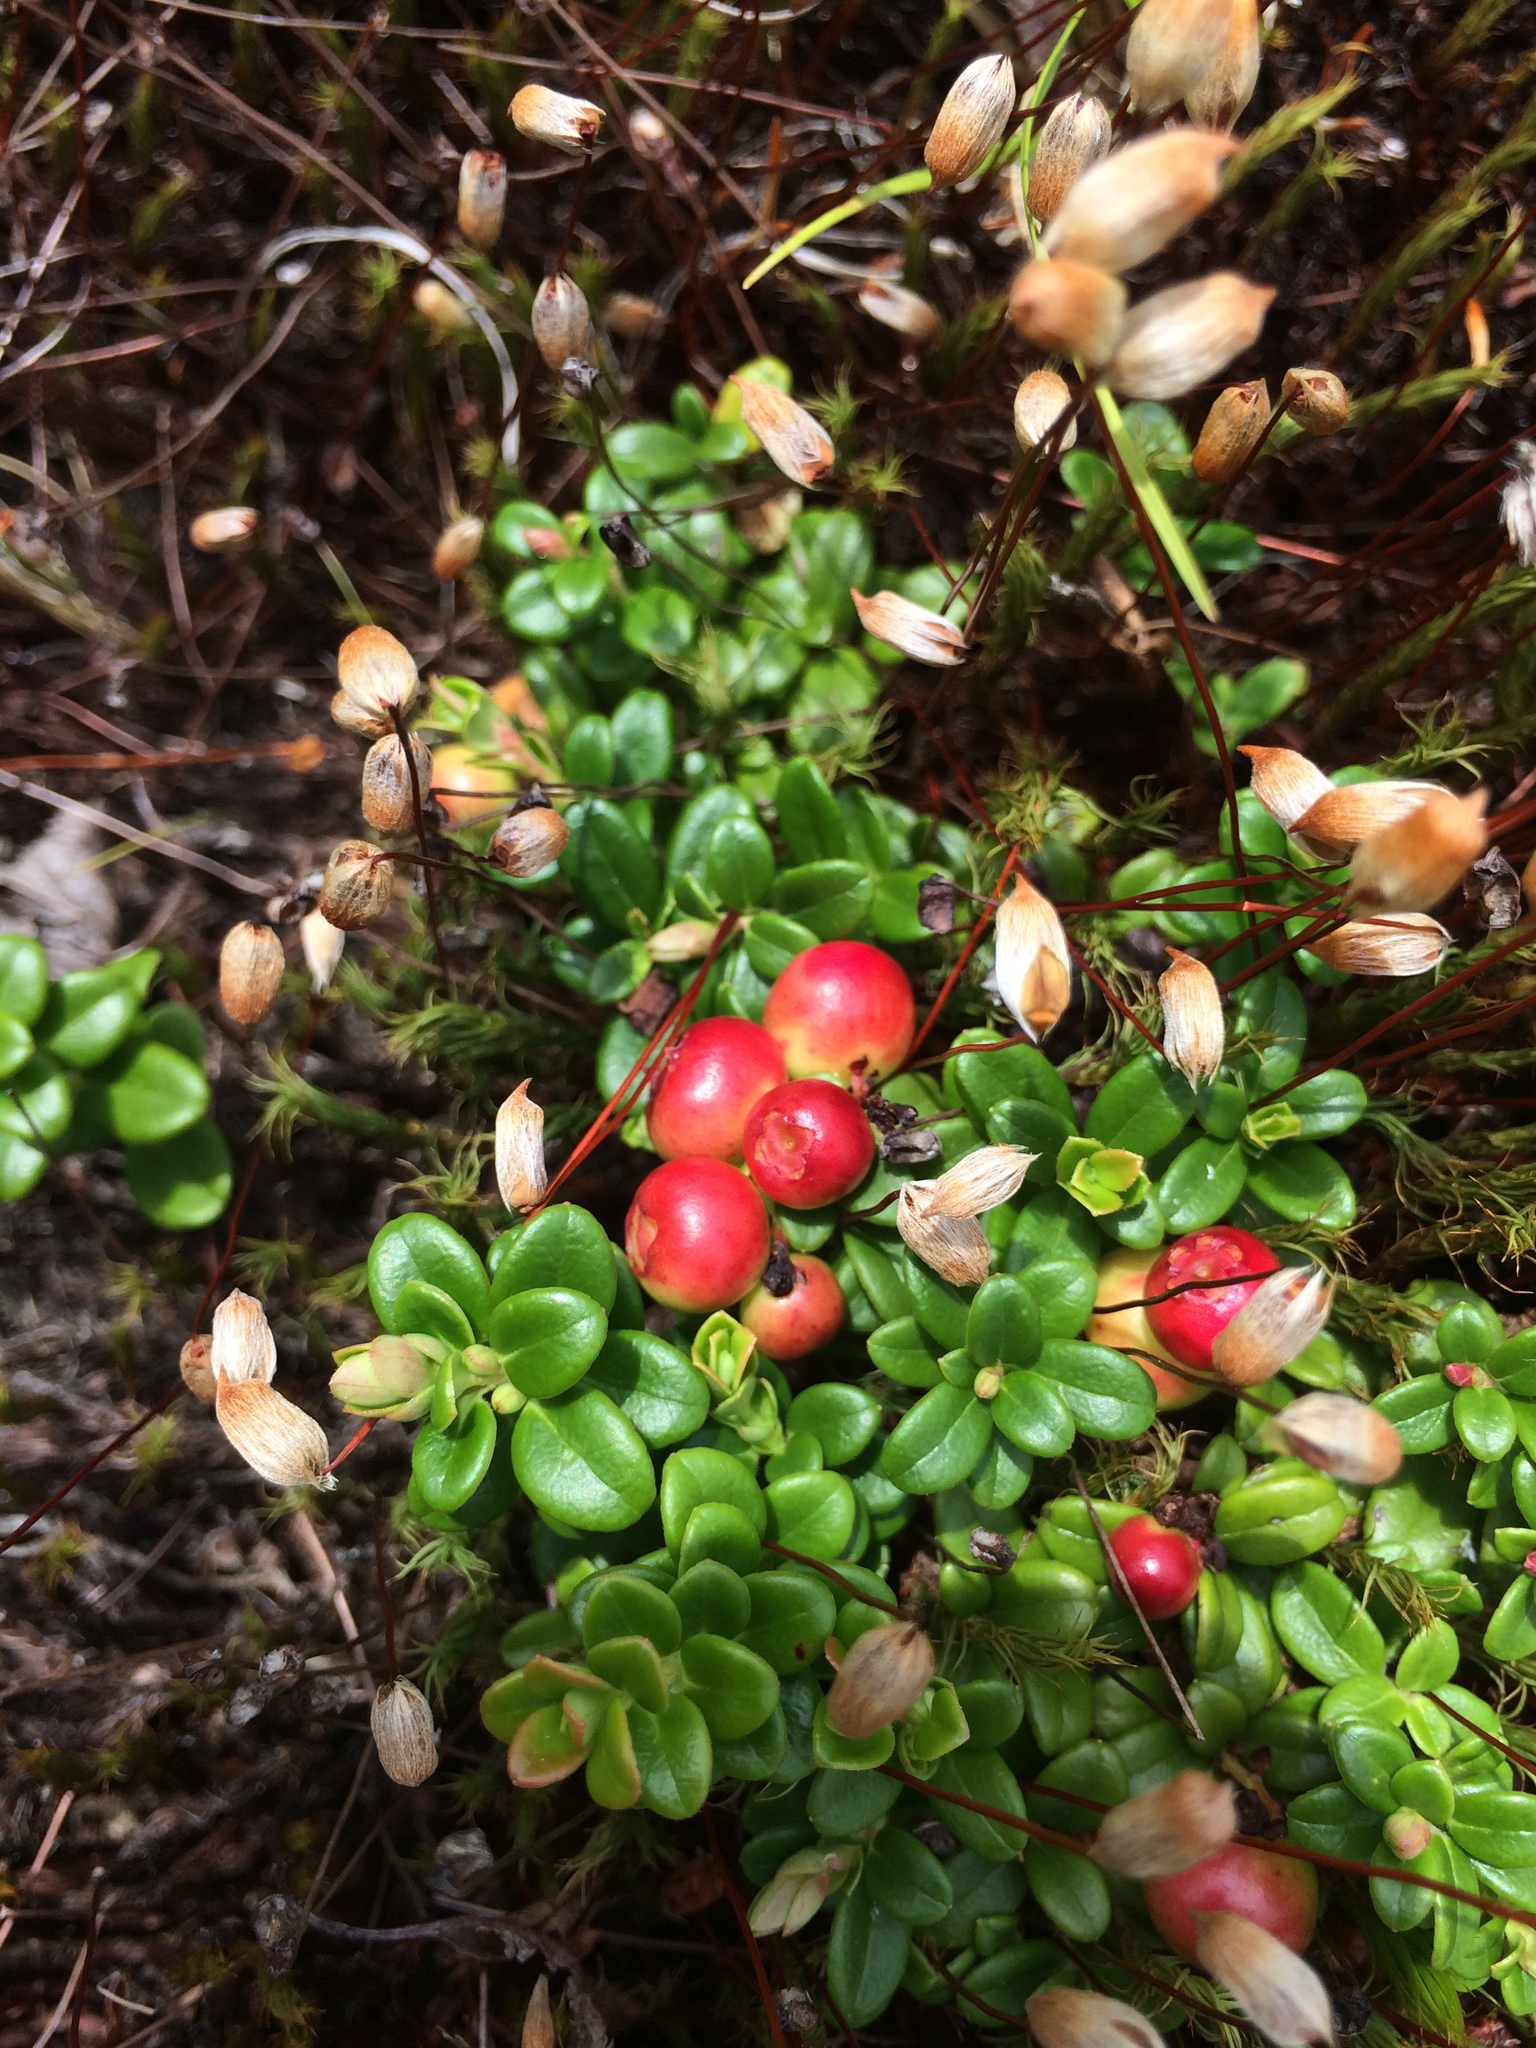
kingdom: Plantae
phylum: Tracheophyta
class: Magnoliopsida
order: Ericales
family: Ericaceae
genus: Vaccinium
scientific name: Vaccinium vitis-idaea
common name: Cowberry
